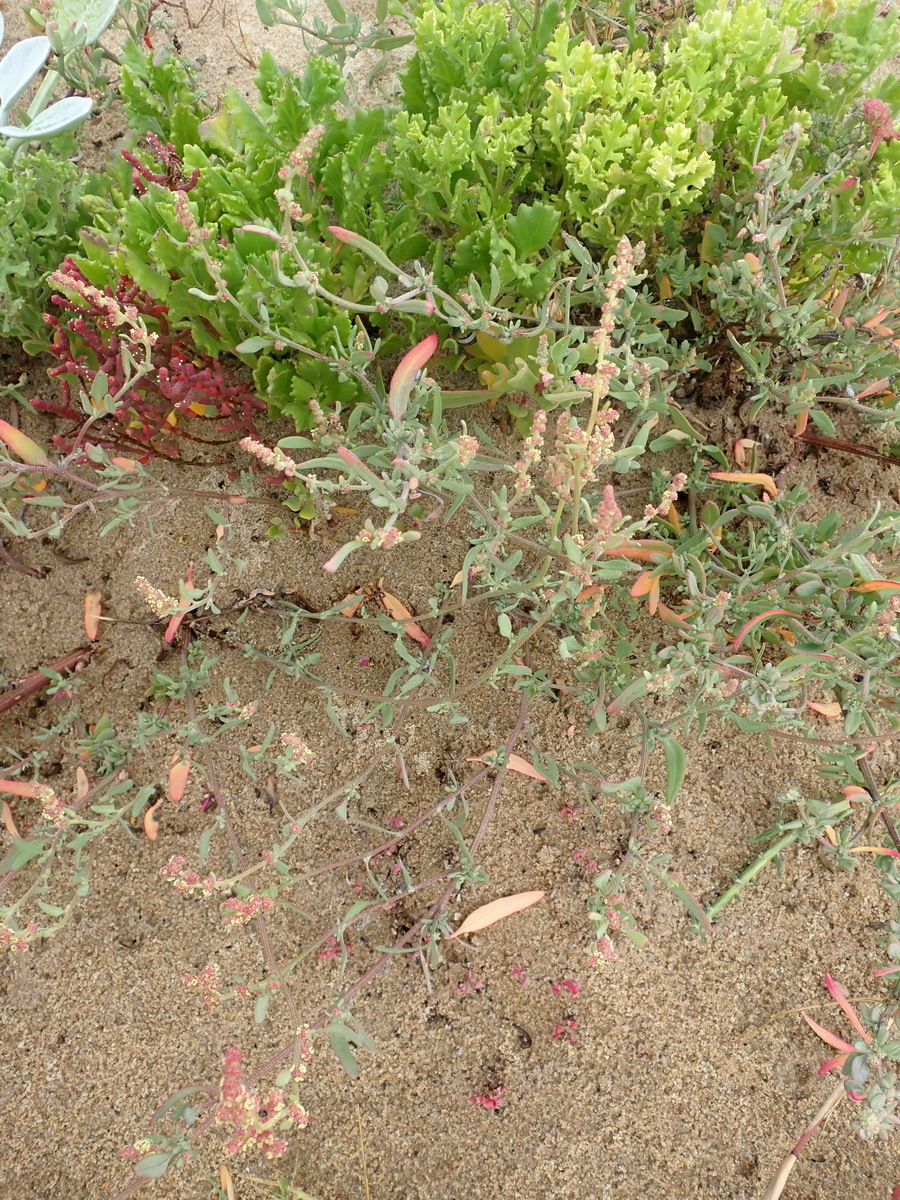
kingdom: Plantae
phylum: Tracheophyta
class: Magnoliopsida
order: Caryophyllales
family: Amaranthaceae
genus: Atriplex
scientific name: Atriplex patula
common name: Common orache
